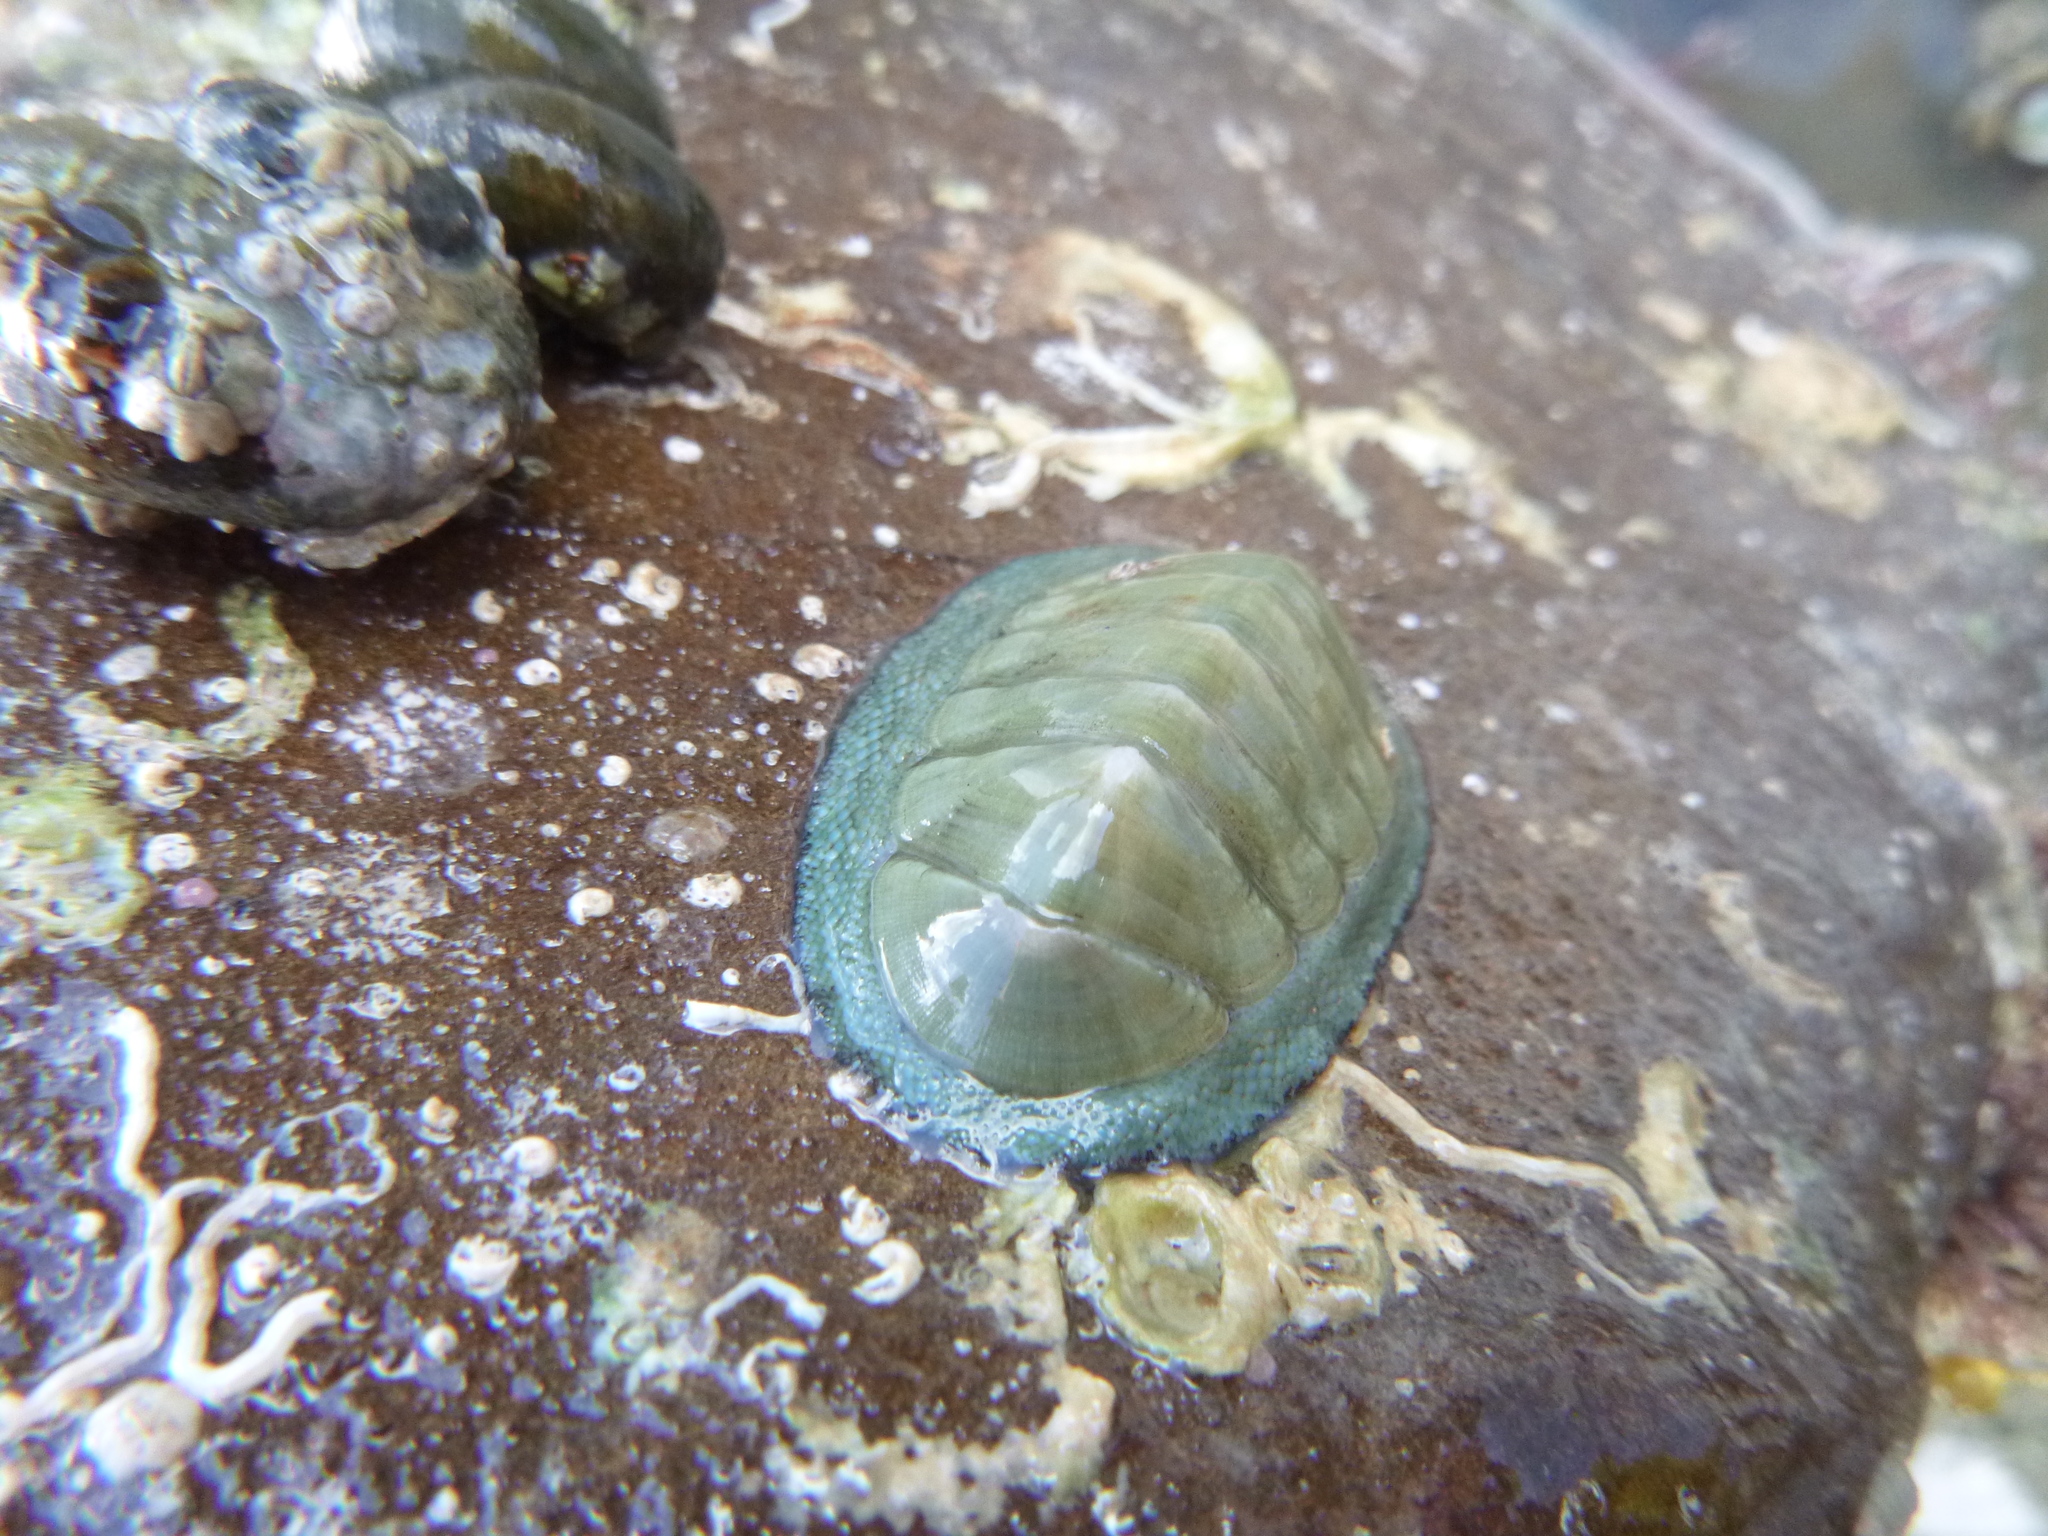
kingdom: Animalia
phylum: Mollusca
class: Polyplacophora
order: Chitonida
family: Chitonidae
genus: Chiton
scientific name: Chiton glaucus
